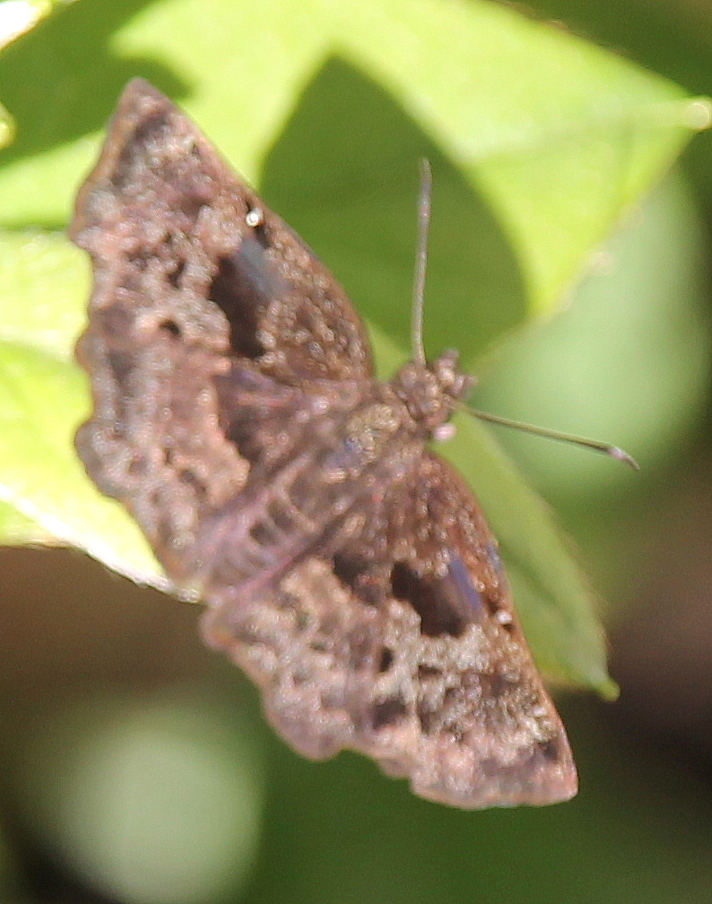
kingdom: Animalia
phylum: Arthropoda
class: Insecta
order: Lepidoptera
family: Hesperiidae
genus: Antigonus
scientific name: Antigonus liborius
